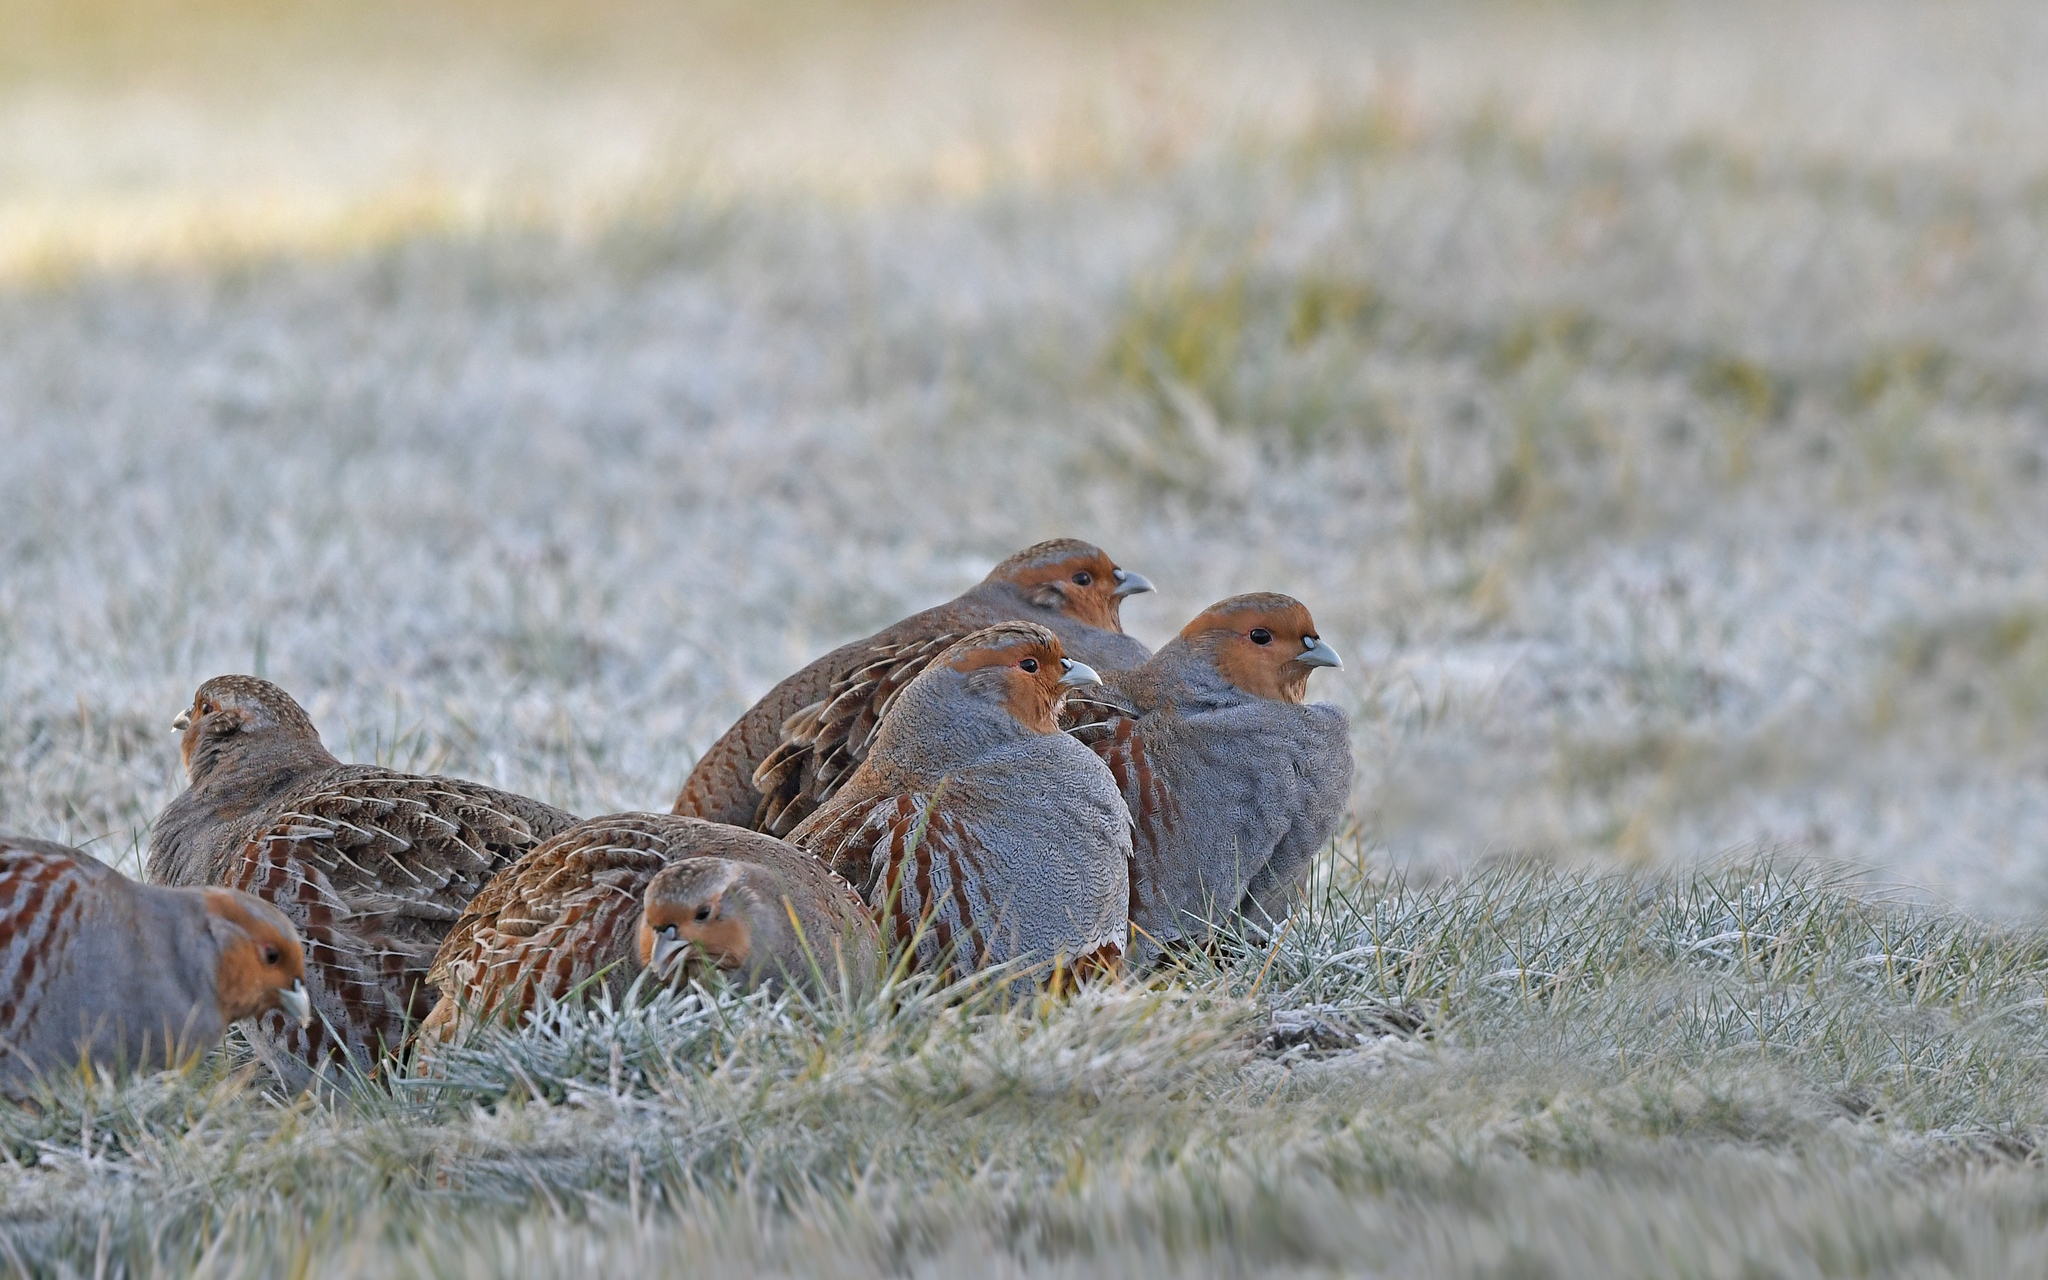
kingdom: Animalia
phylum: Chordata
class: Aves
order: Galliformes
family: Phasianidae
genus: Perdix
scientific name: Perdix perdix
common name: Grey partridge
